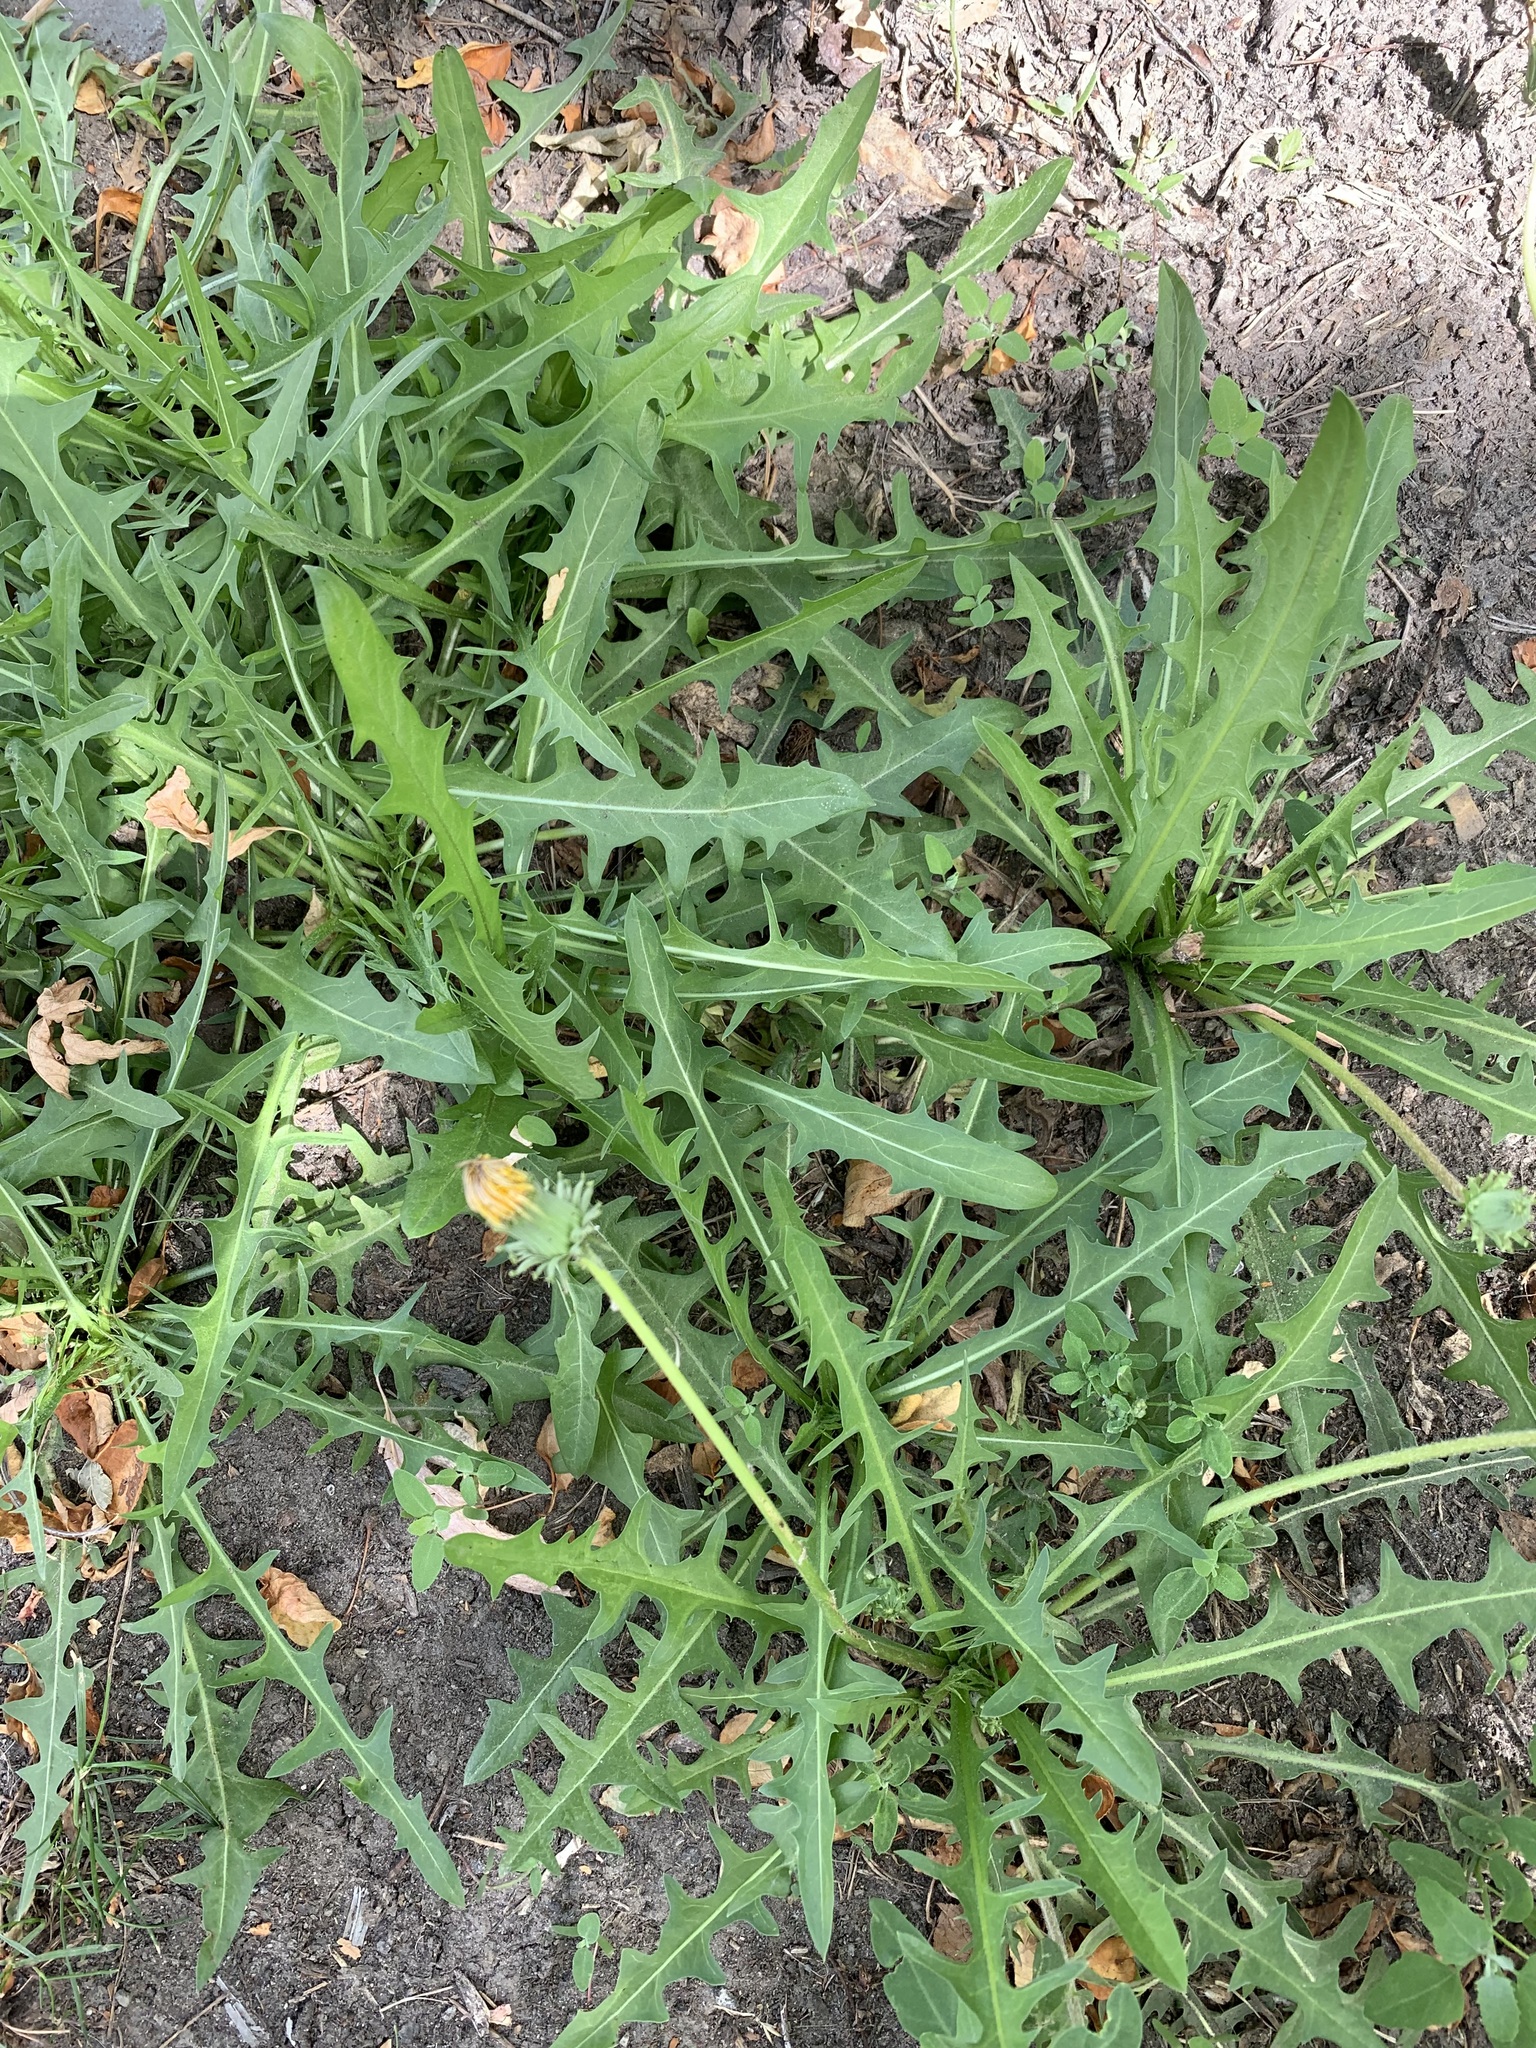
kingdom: Plantae
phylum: Tracheophyta
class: Magnoliopsida
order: Asterales
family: Asteraceae
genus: Taraxacum
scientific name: Taraxacum scariosum
